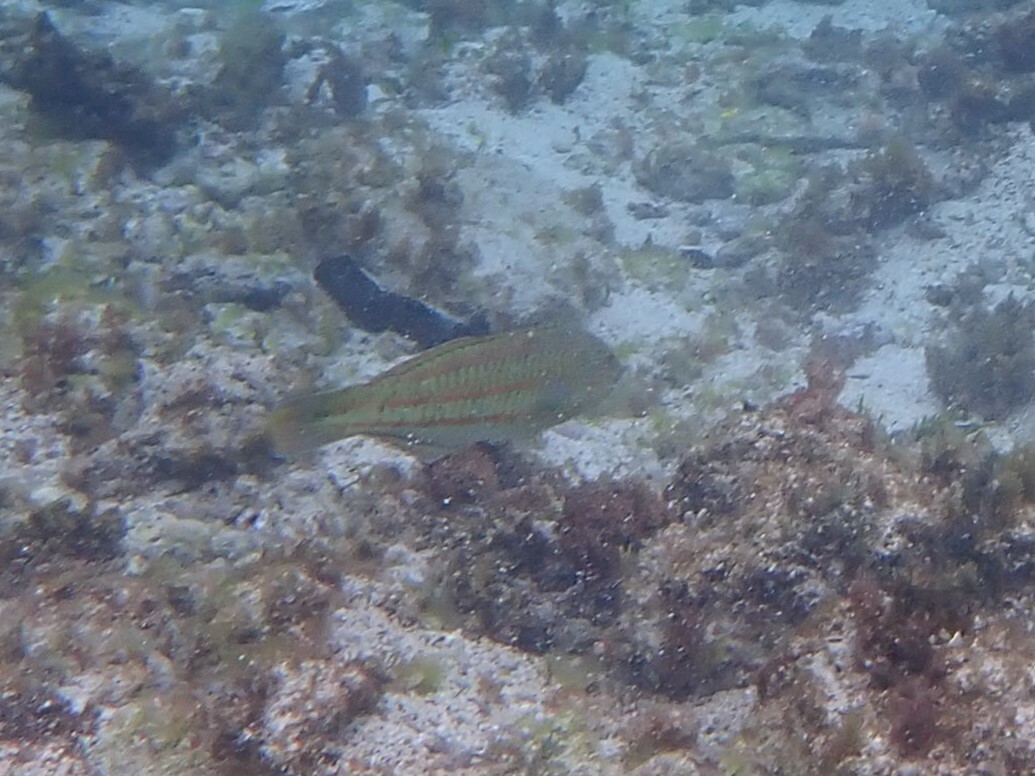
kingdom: Animalia
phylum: Chordata
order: Perciformes
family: Labridae
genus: Thalassoma
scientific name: Thalassoma purpureum
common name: Parrotfish
